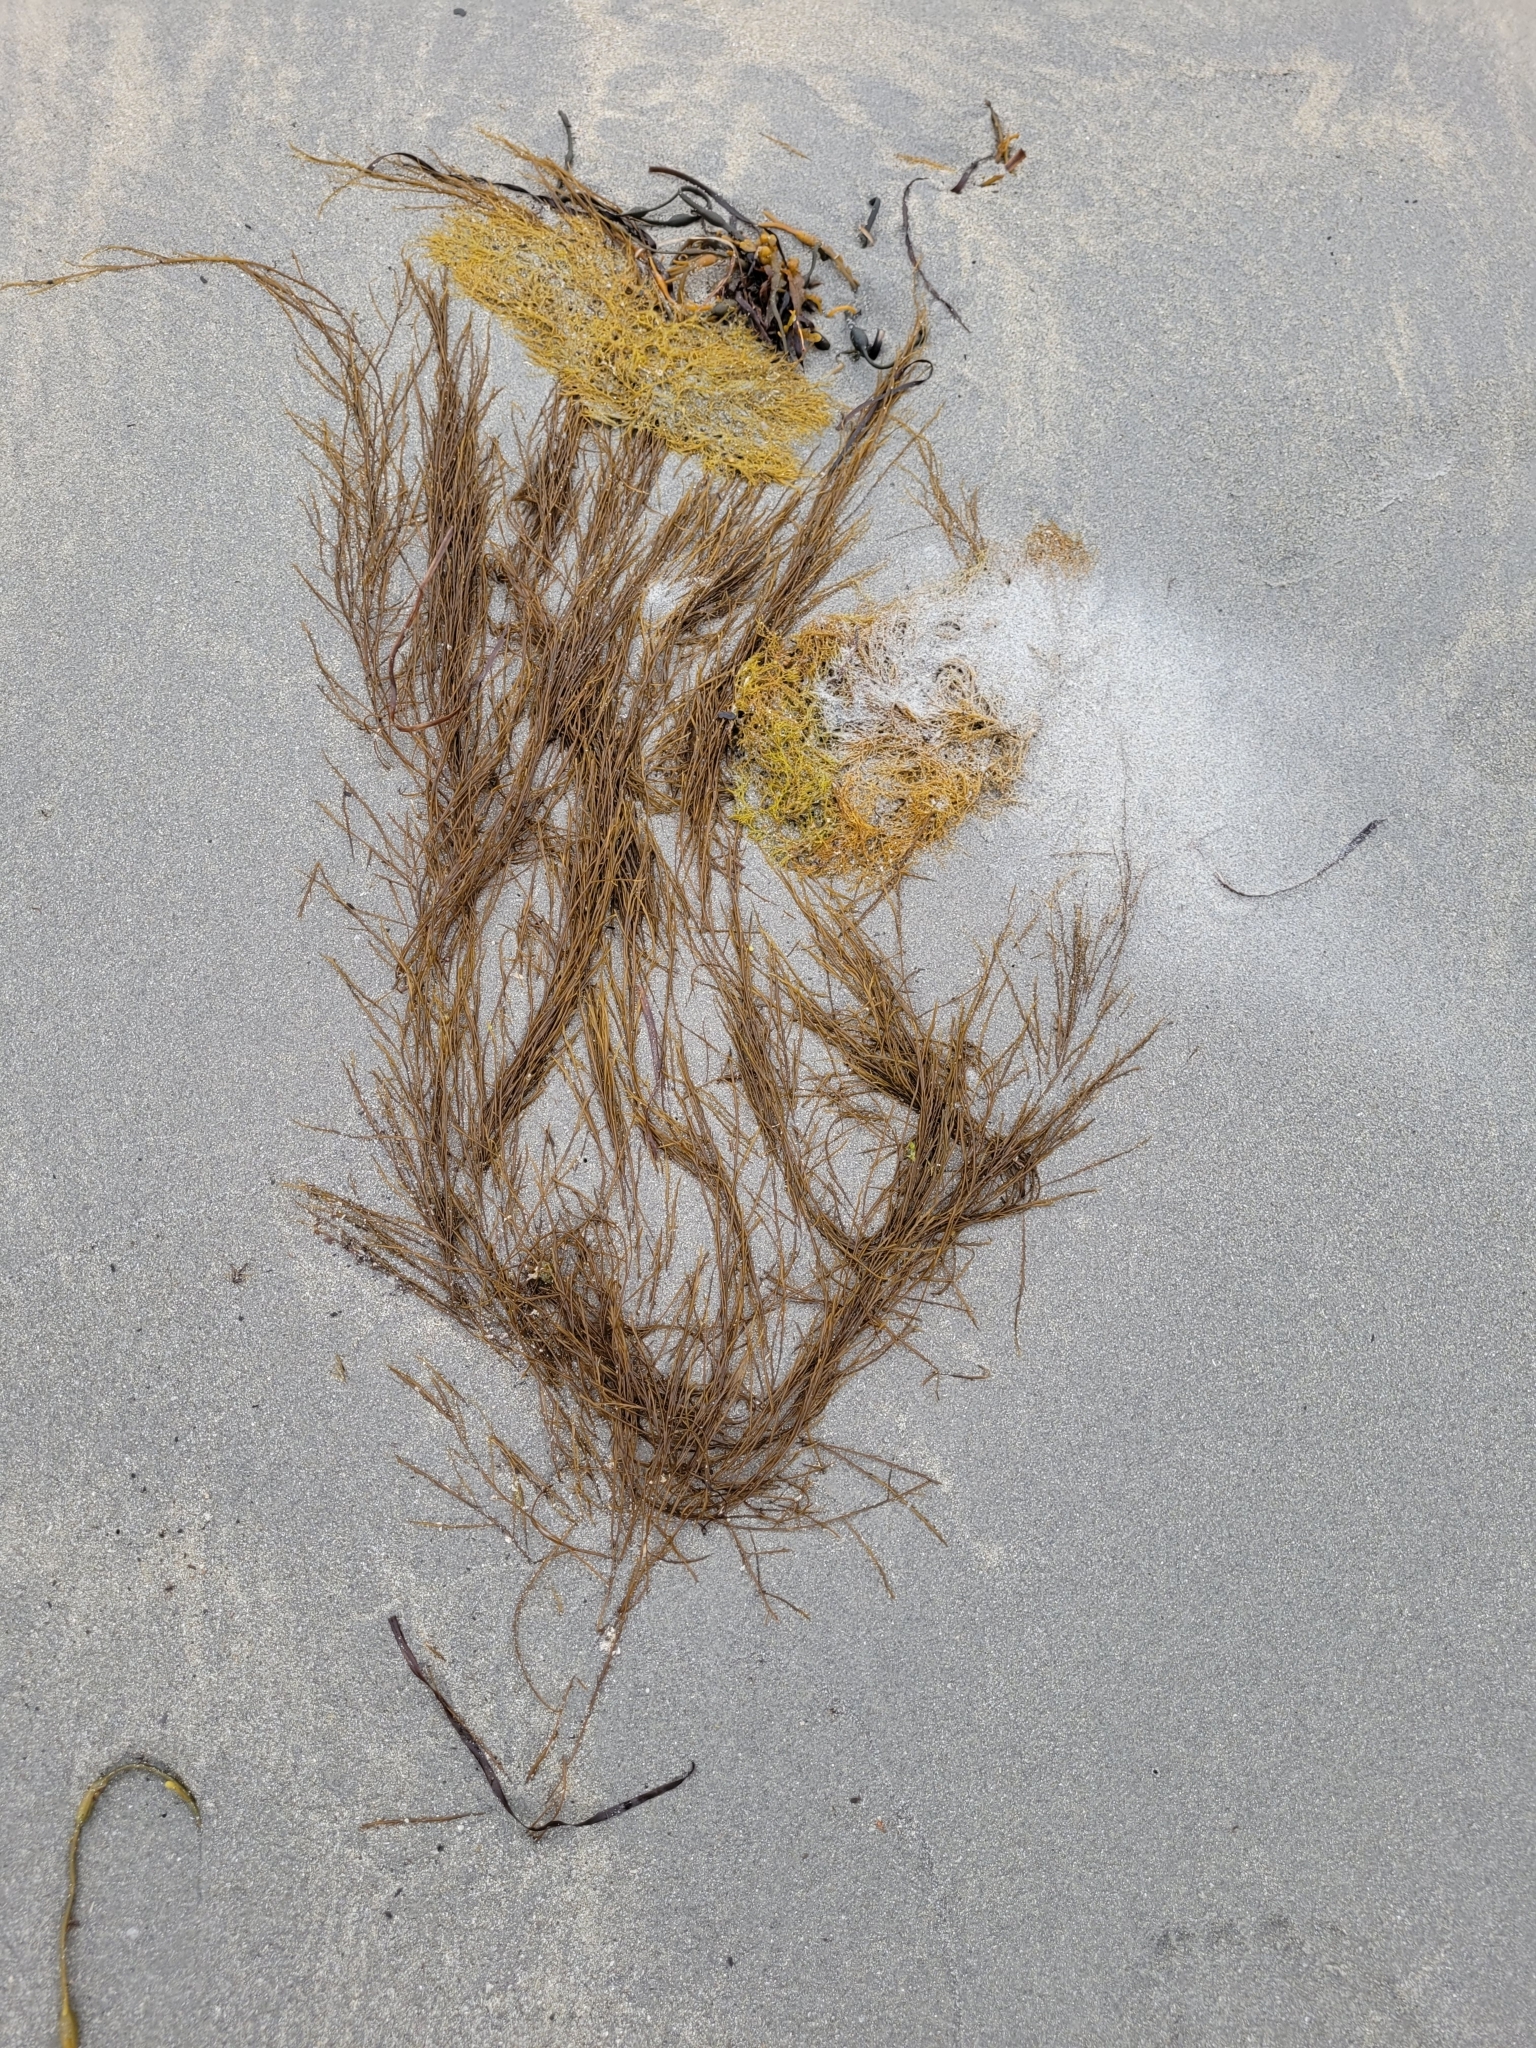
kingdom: Chromista
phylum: Ochrophyta
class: Phaeophyceae
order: Desmarestiales
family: Desmarestiaceae
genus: Desmarestia
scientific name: Desmarestia aculeata
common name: Witch's hair
